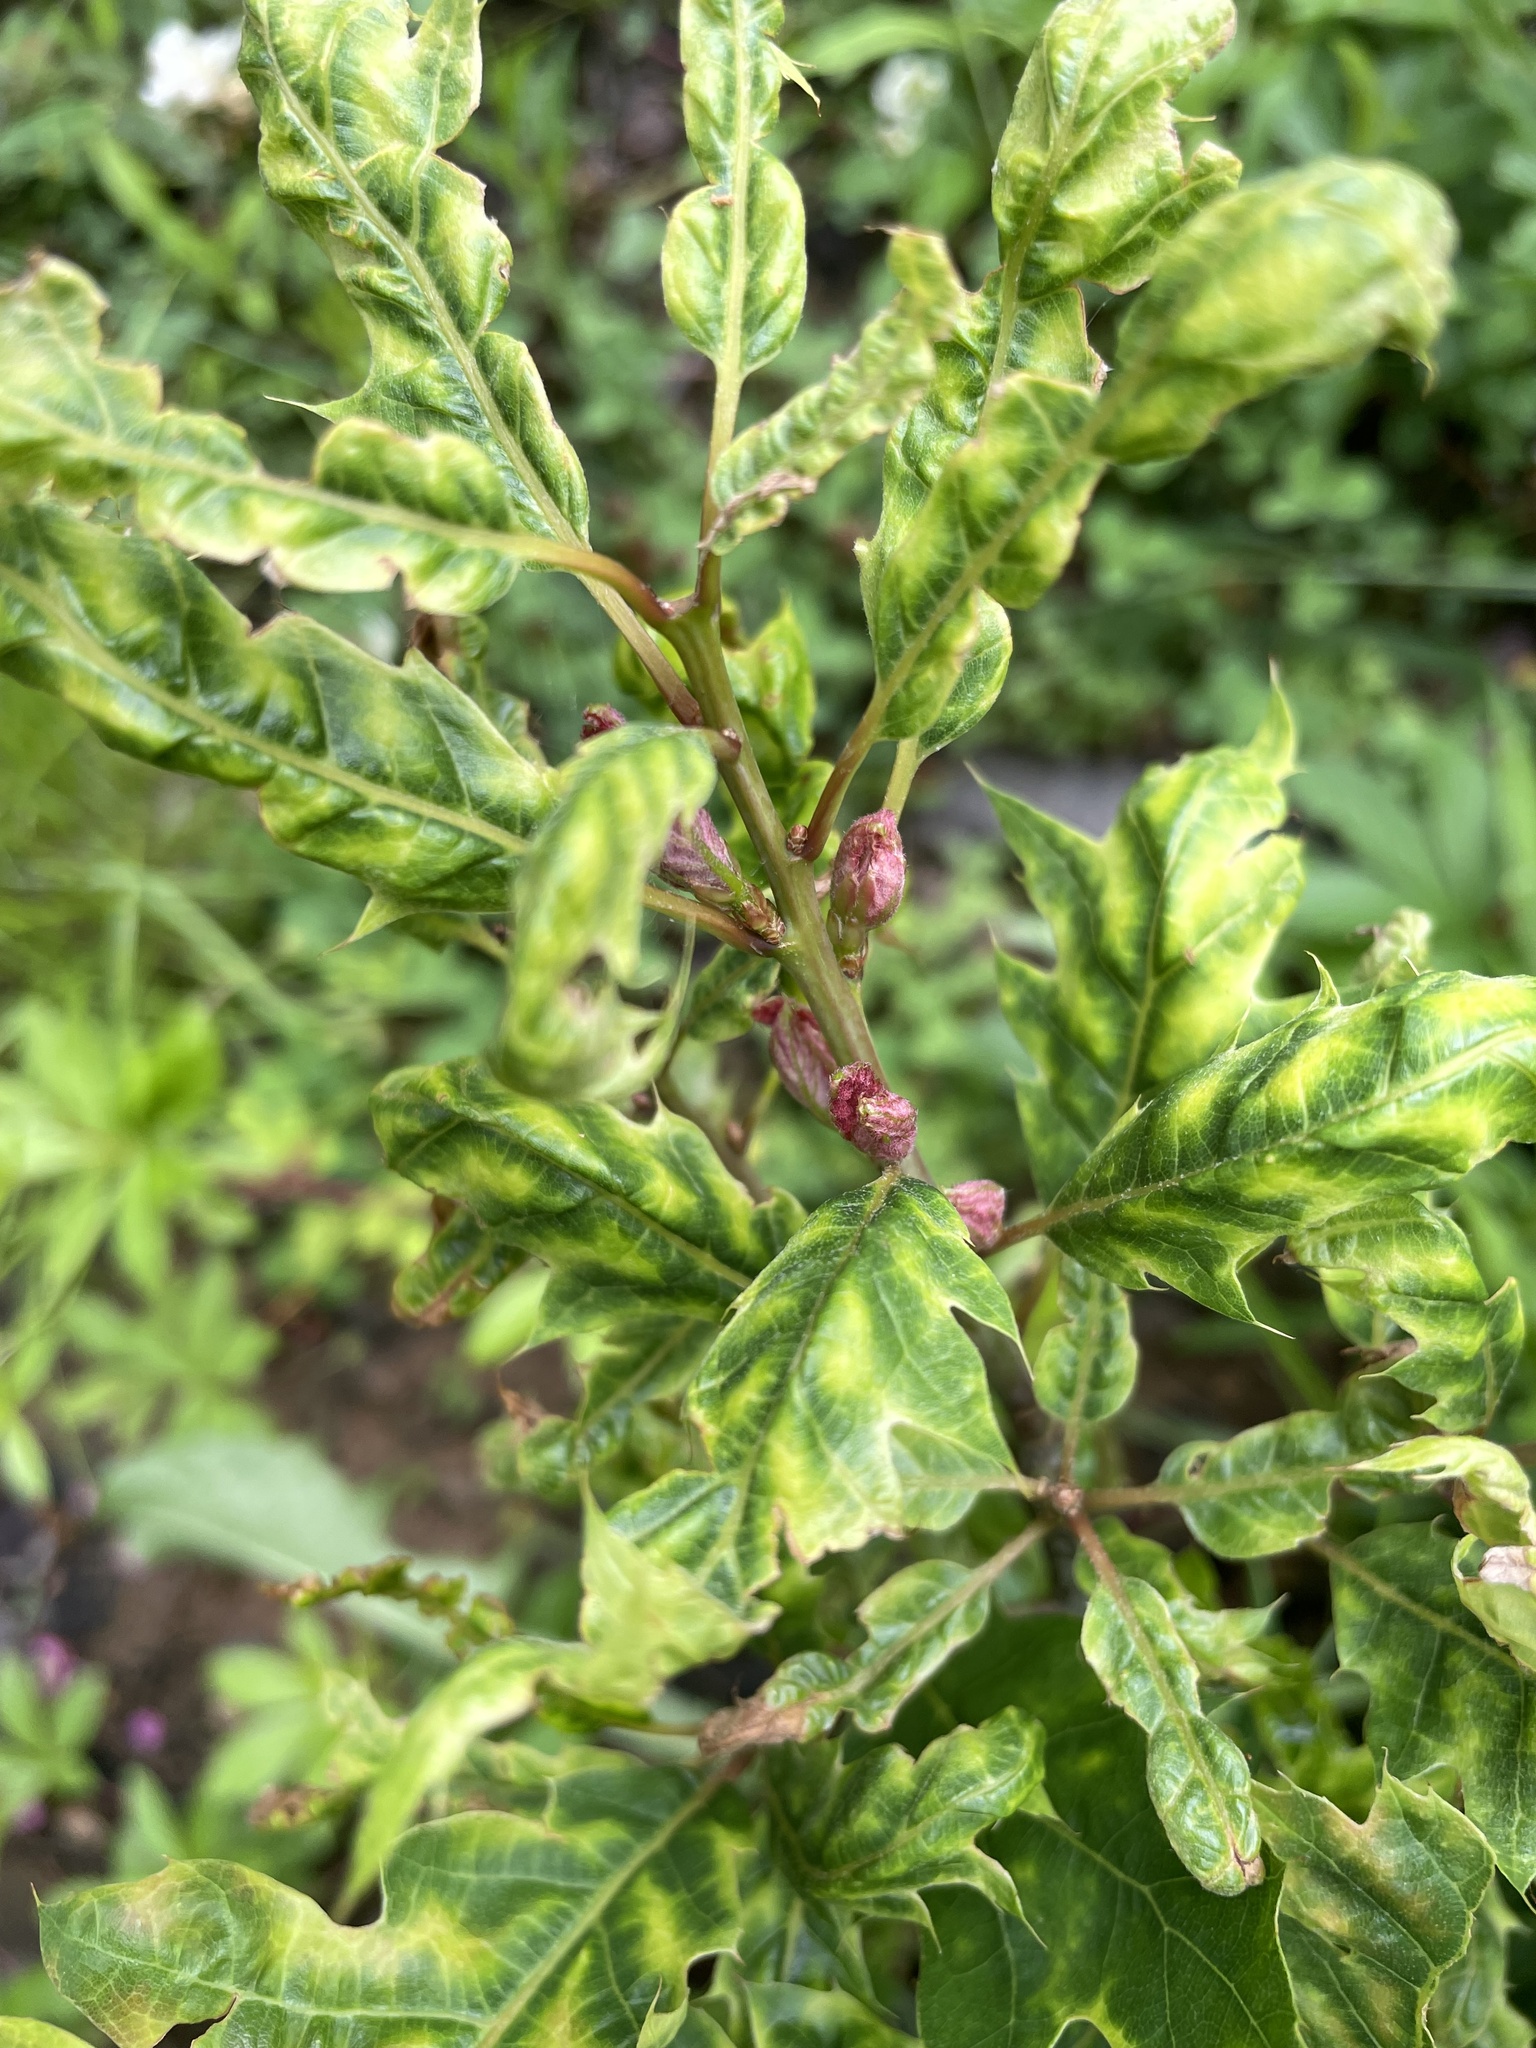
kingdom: Plantae
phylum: Tracheophyta
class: Magnoliopsida
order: Fagales
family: Fagaceae
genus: Quercus
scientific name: Quercus rubra
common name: Red oak
